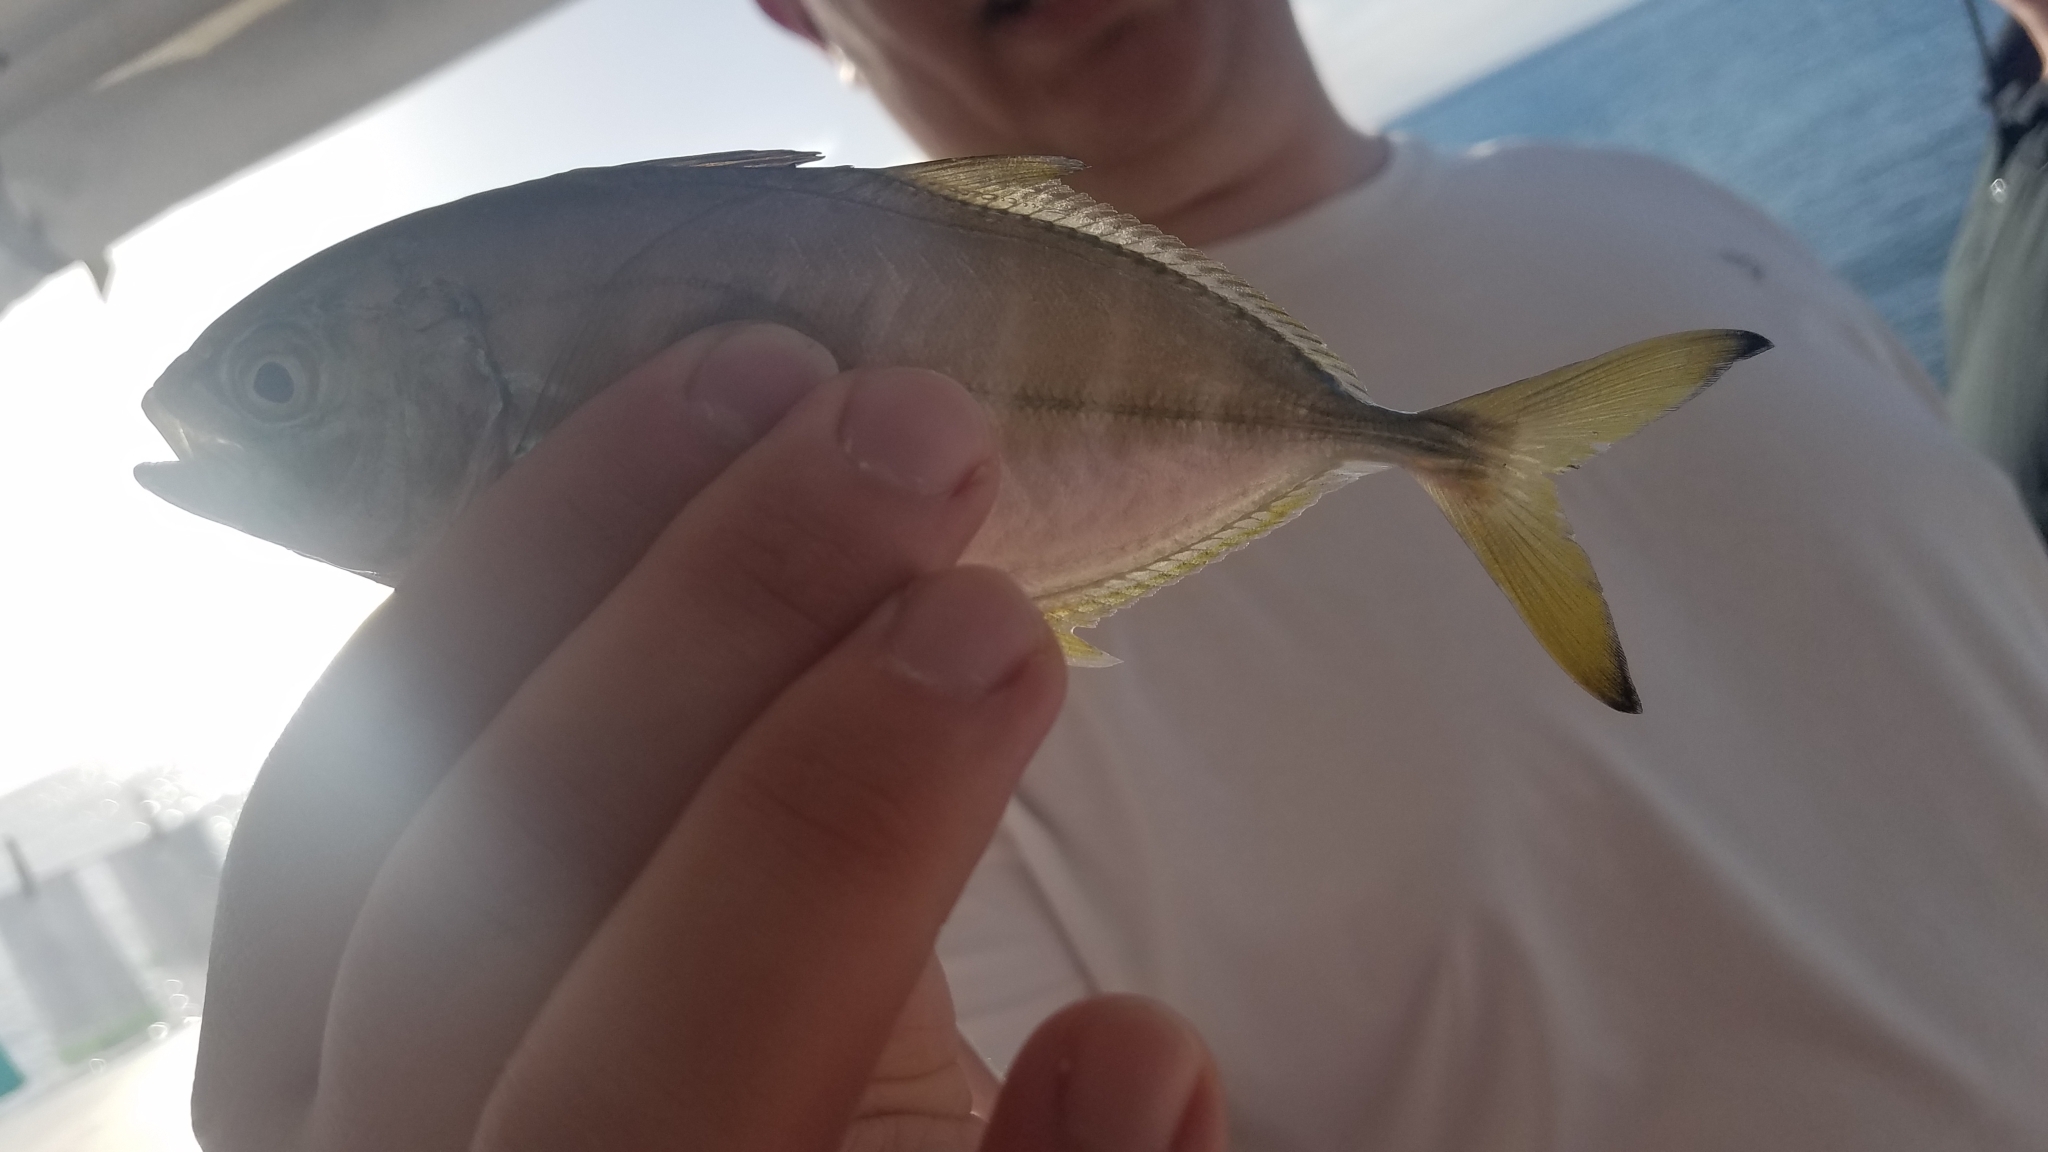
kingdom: Animalia
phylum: Chordata
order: Perciformes
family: Carangidae
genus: Caranx
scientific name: Caranx crysos
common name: Blue runner
